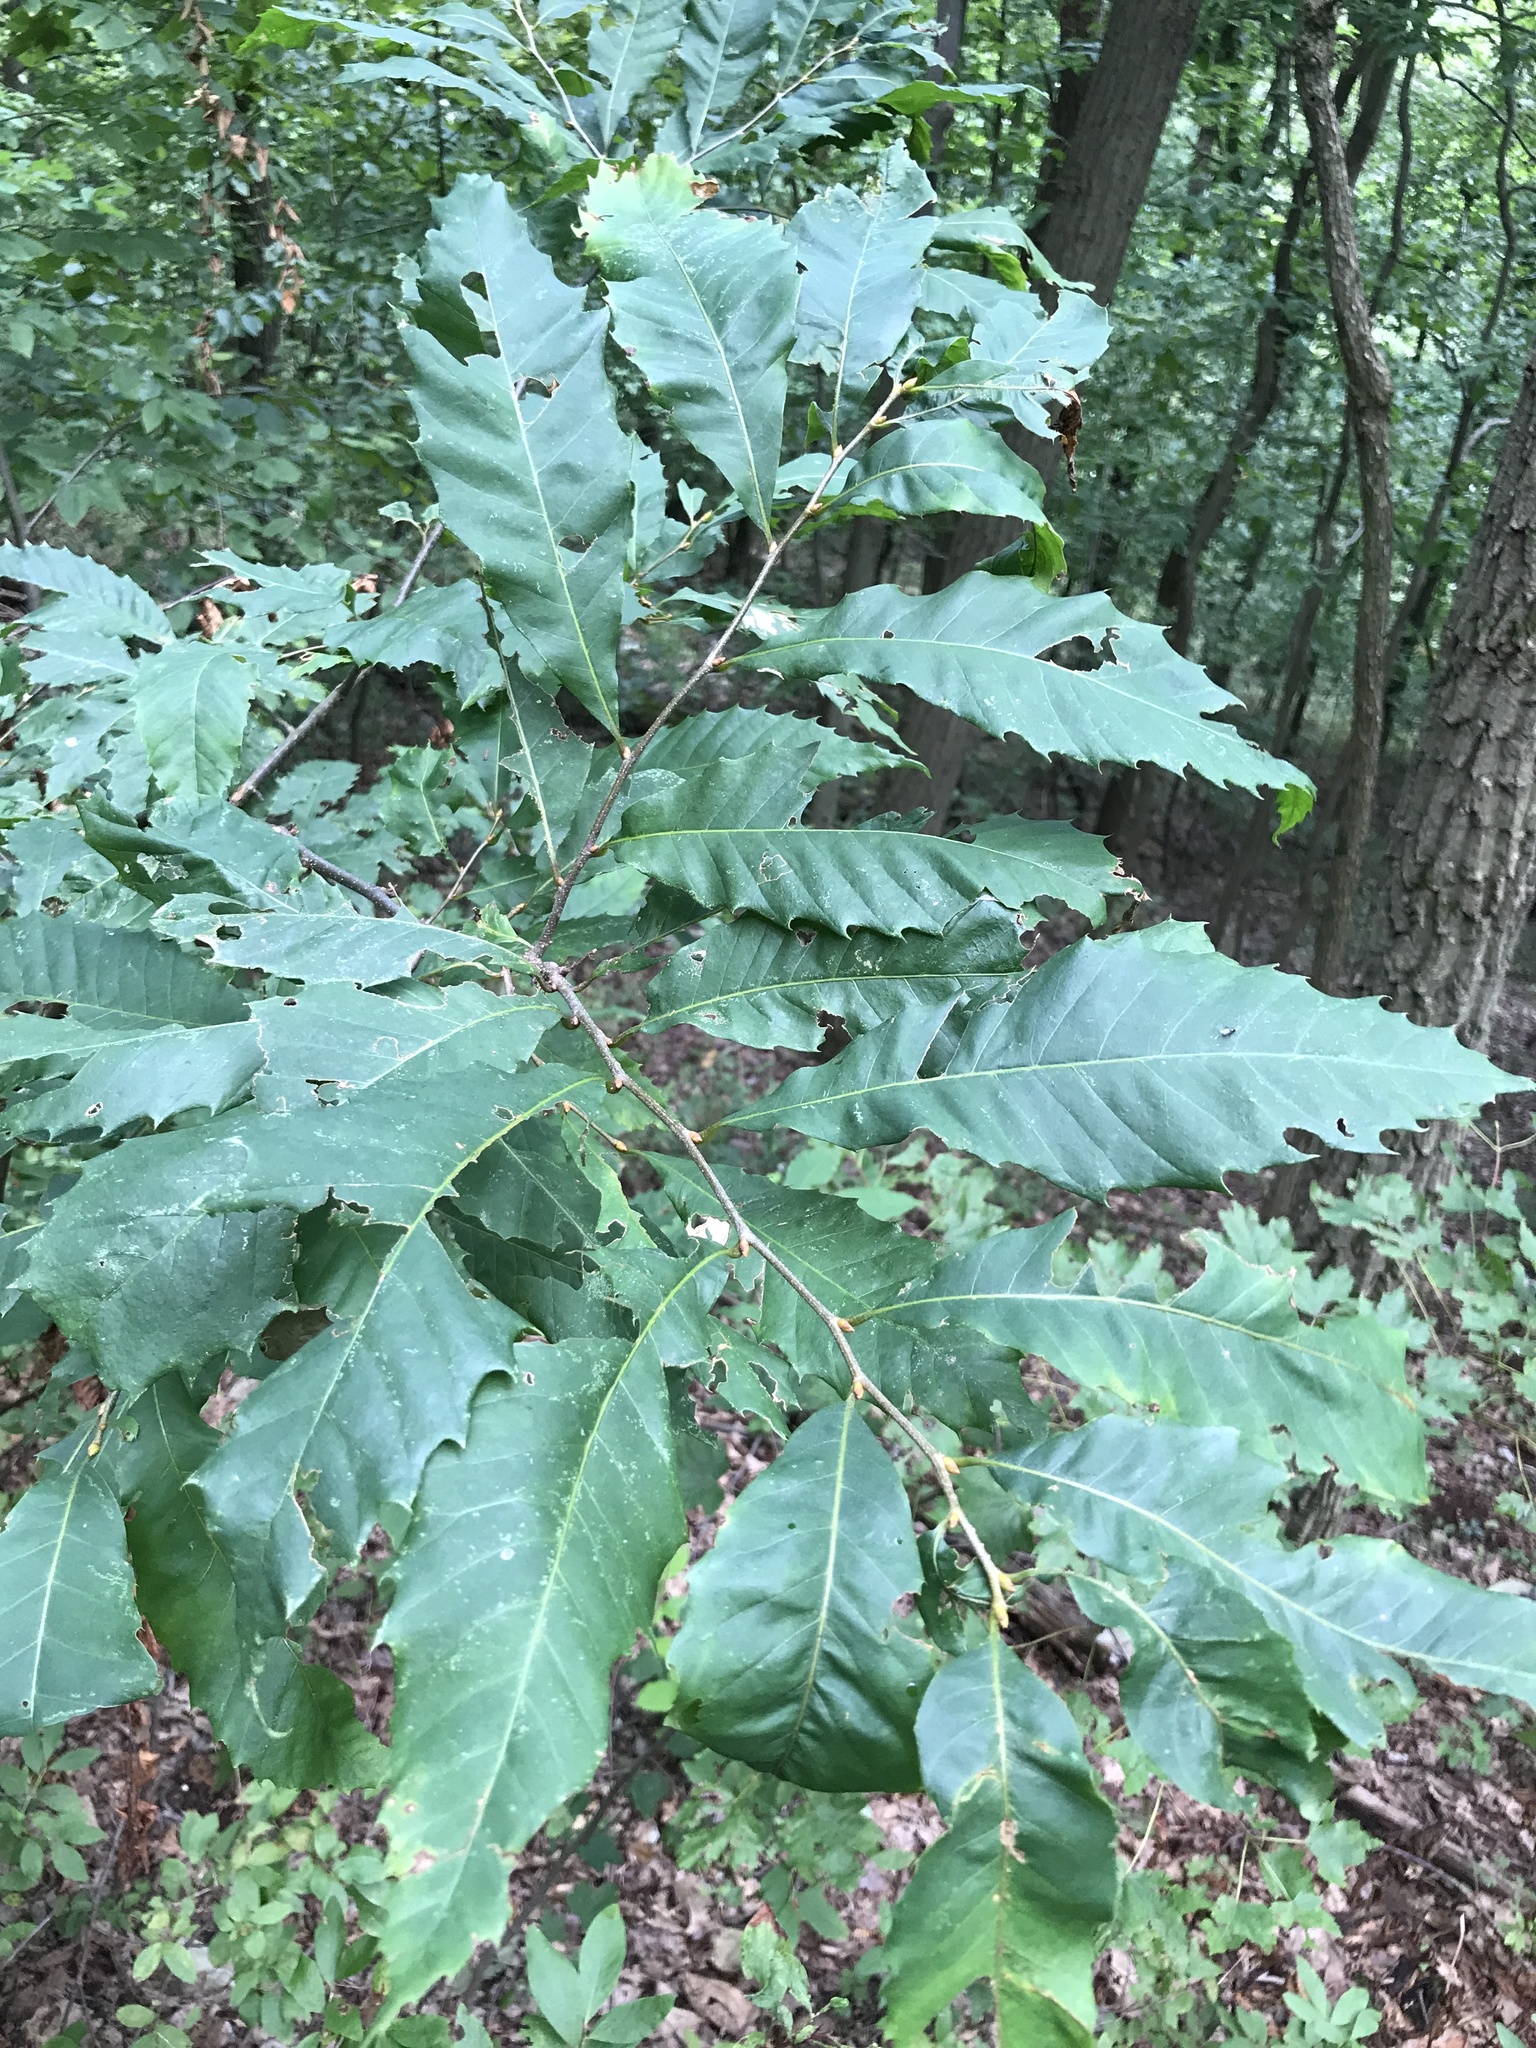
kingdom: Plantae
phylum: Tracheophyta
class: Magnoliopsida
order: Fagales
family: Fagaceae
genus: Castanea
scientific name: Castanea dentata
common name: American chestnut
